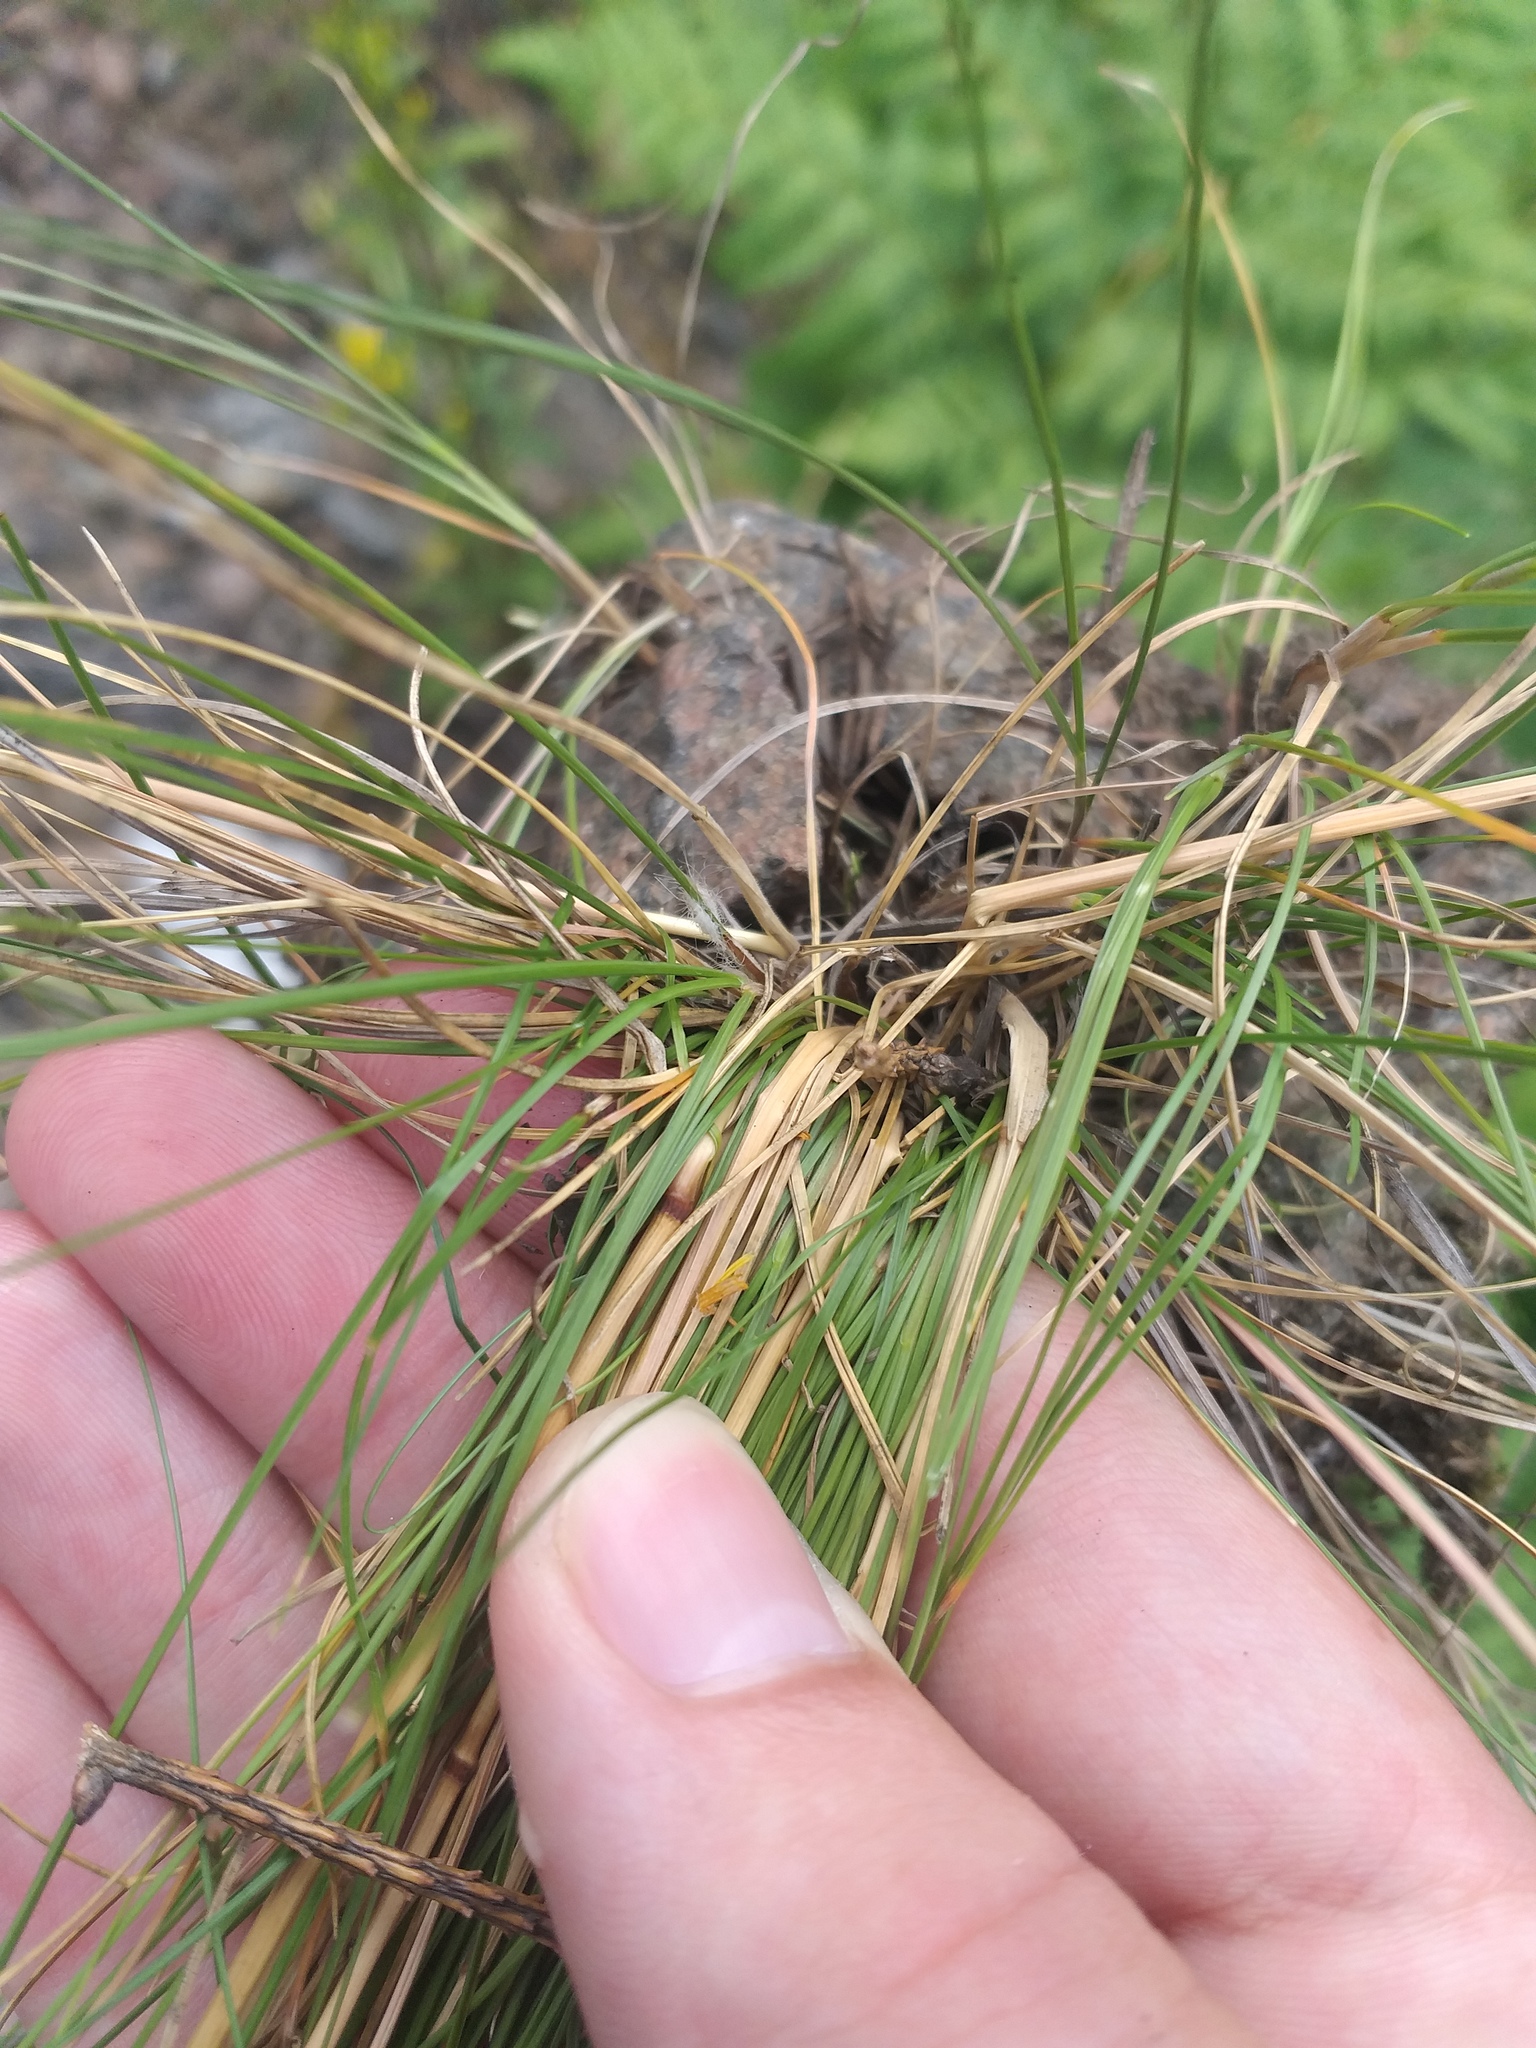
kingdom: Plantae
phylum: Tracheophyta
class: Liliopsida
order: Poales
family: Poaceae
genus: Festuca
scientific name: Festuca rubra
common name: Red fescue
